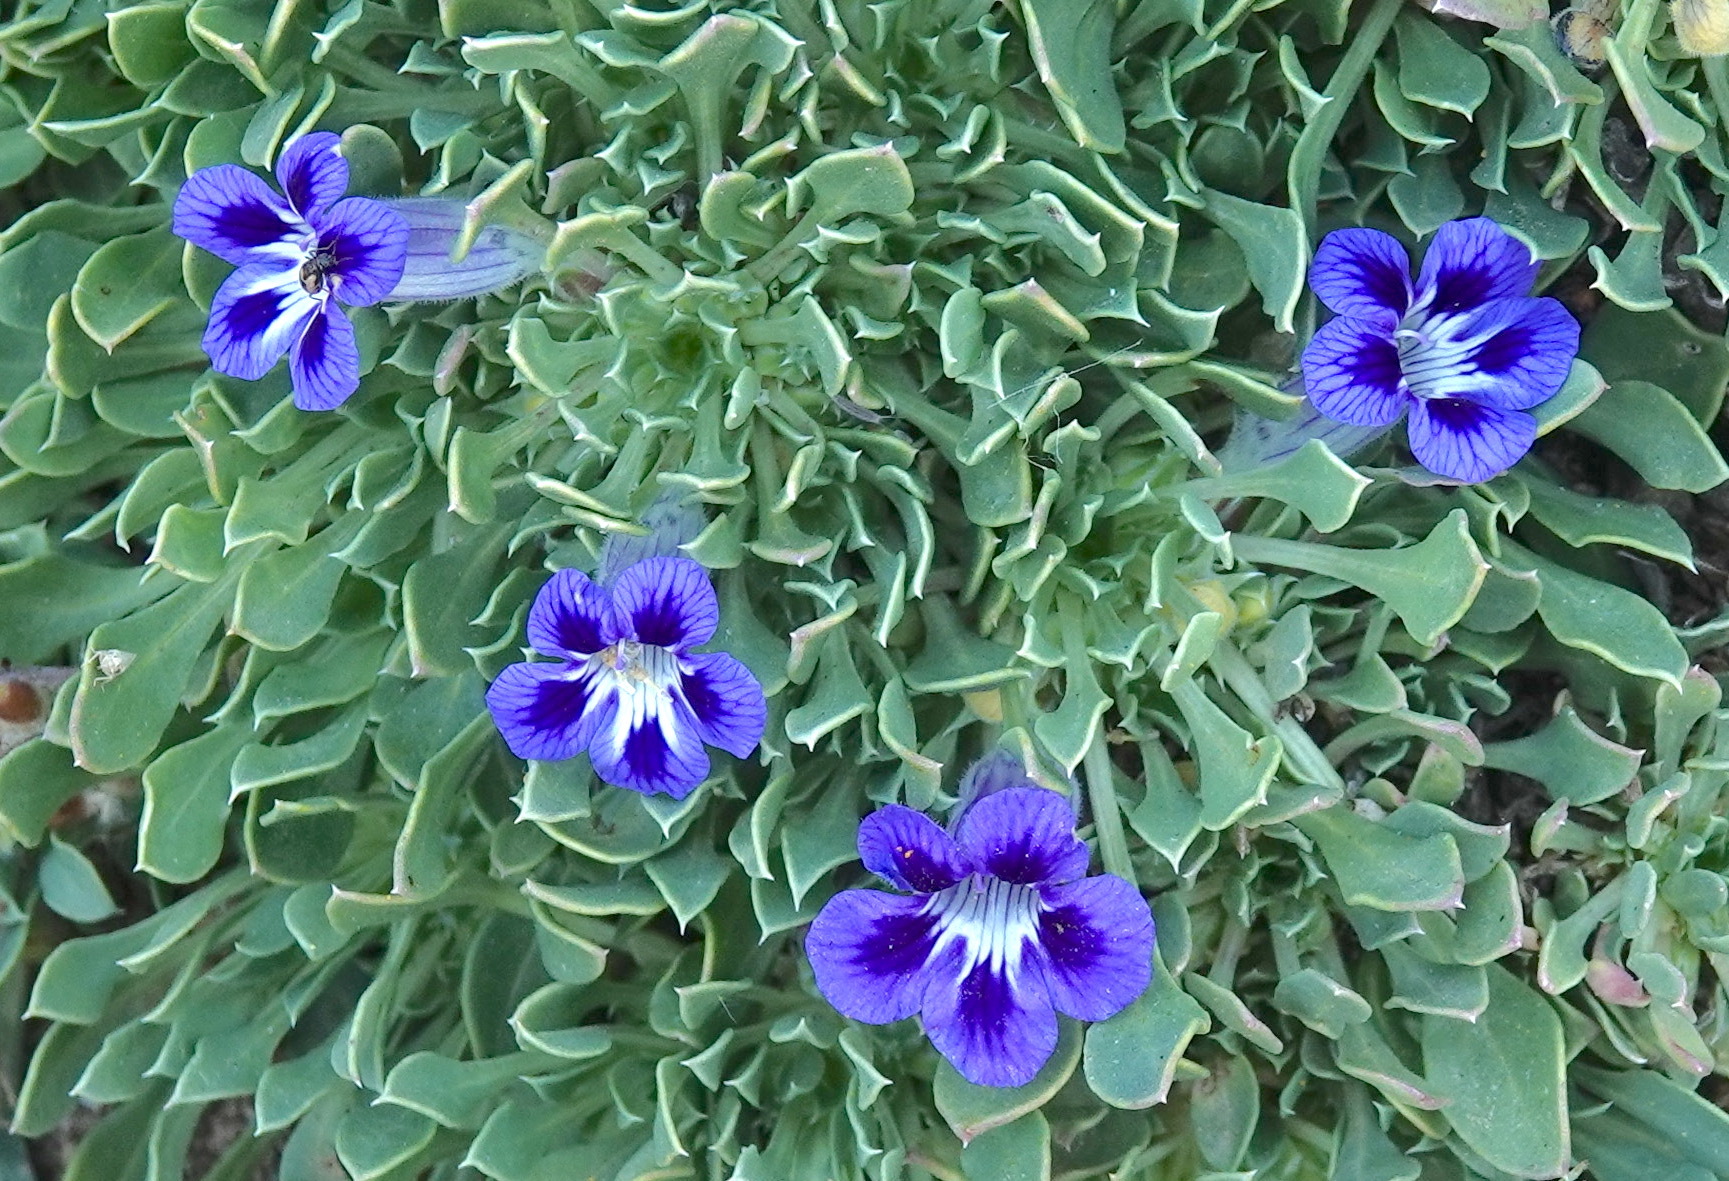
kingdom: Plantae
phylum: Tracheophyta
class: Magnoliopsida
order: Lamiales
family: Scrophulariaceae
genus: Aptosimum
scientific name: Aptosimum indivisum
